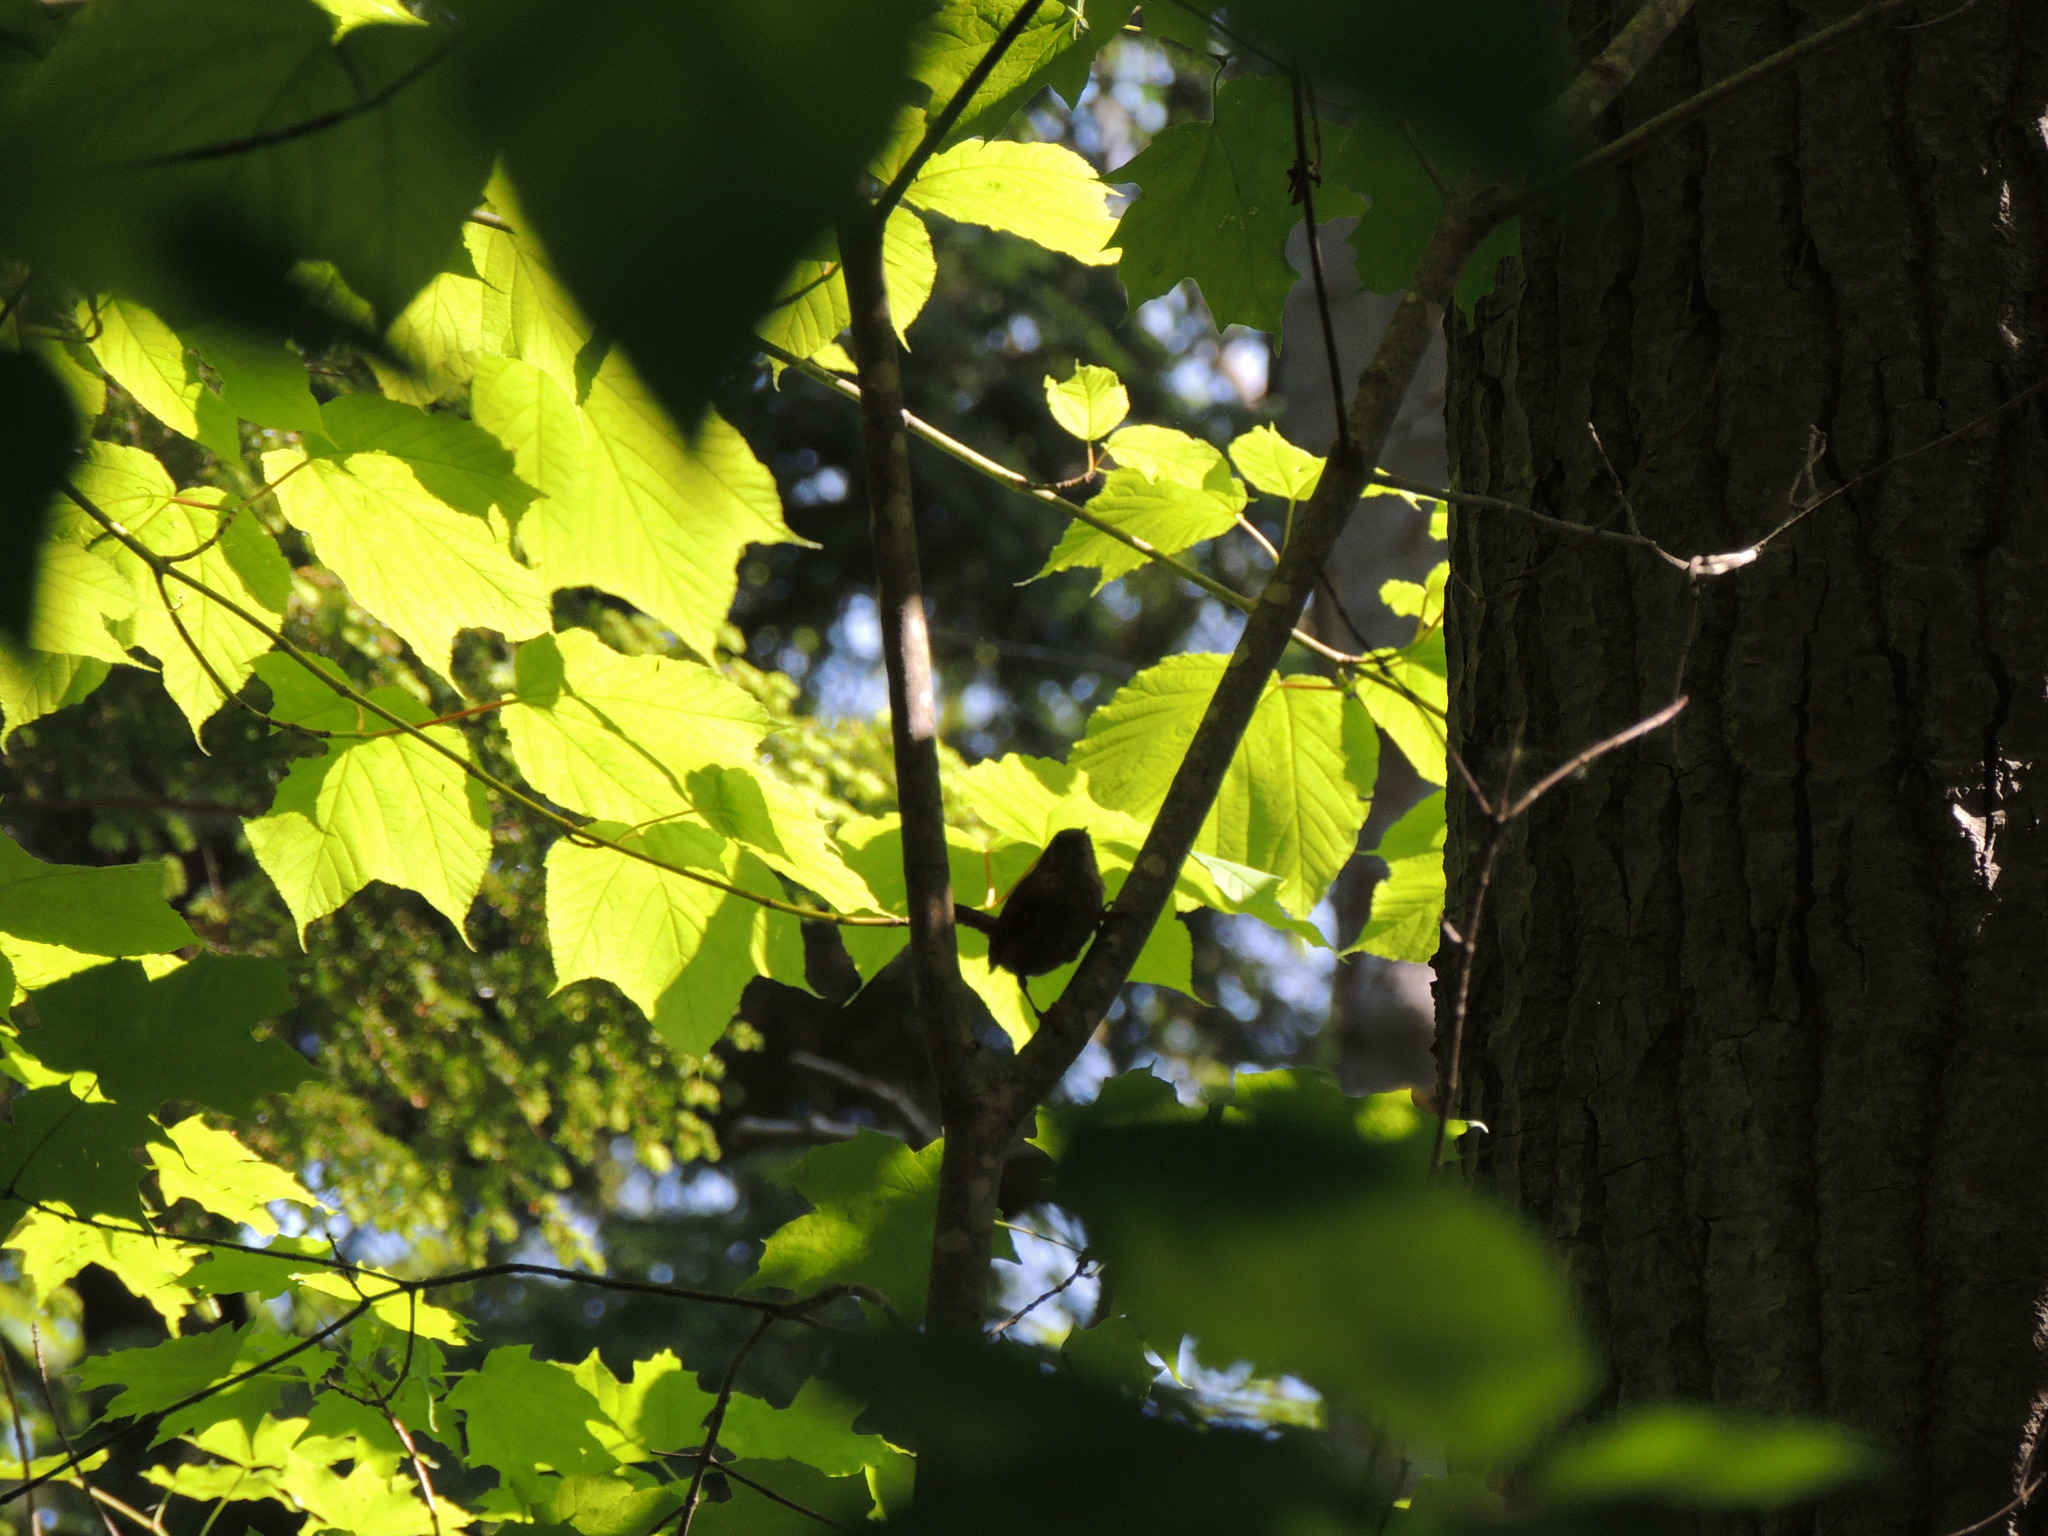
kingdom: Animalia
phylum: Chordata
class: Aves
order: Passeriformes
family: Troglodytidae
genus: Troglodytes
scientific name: Troglodytes hiemalis
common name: Winter wren
